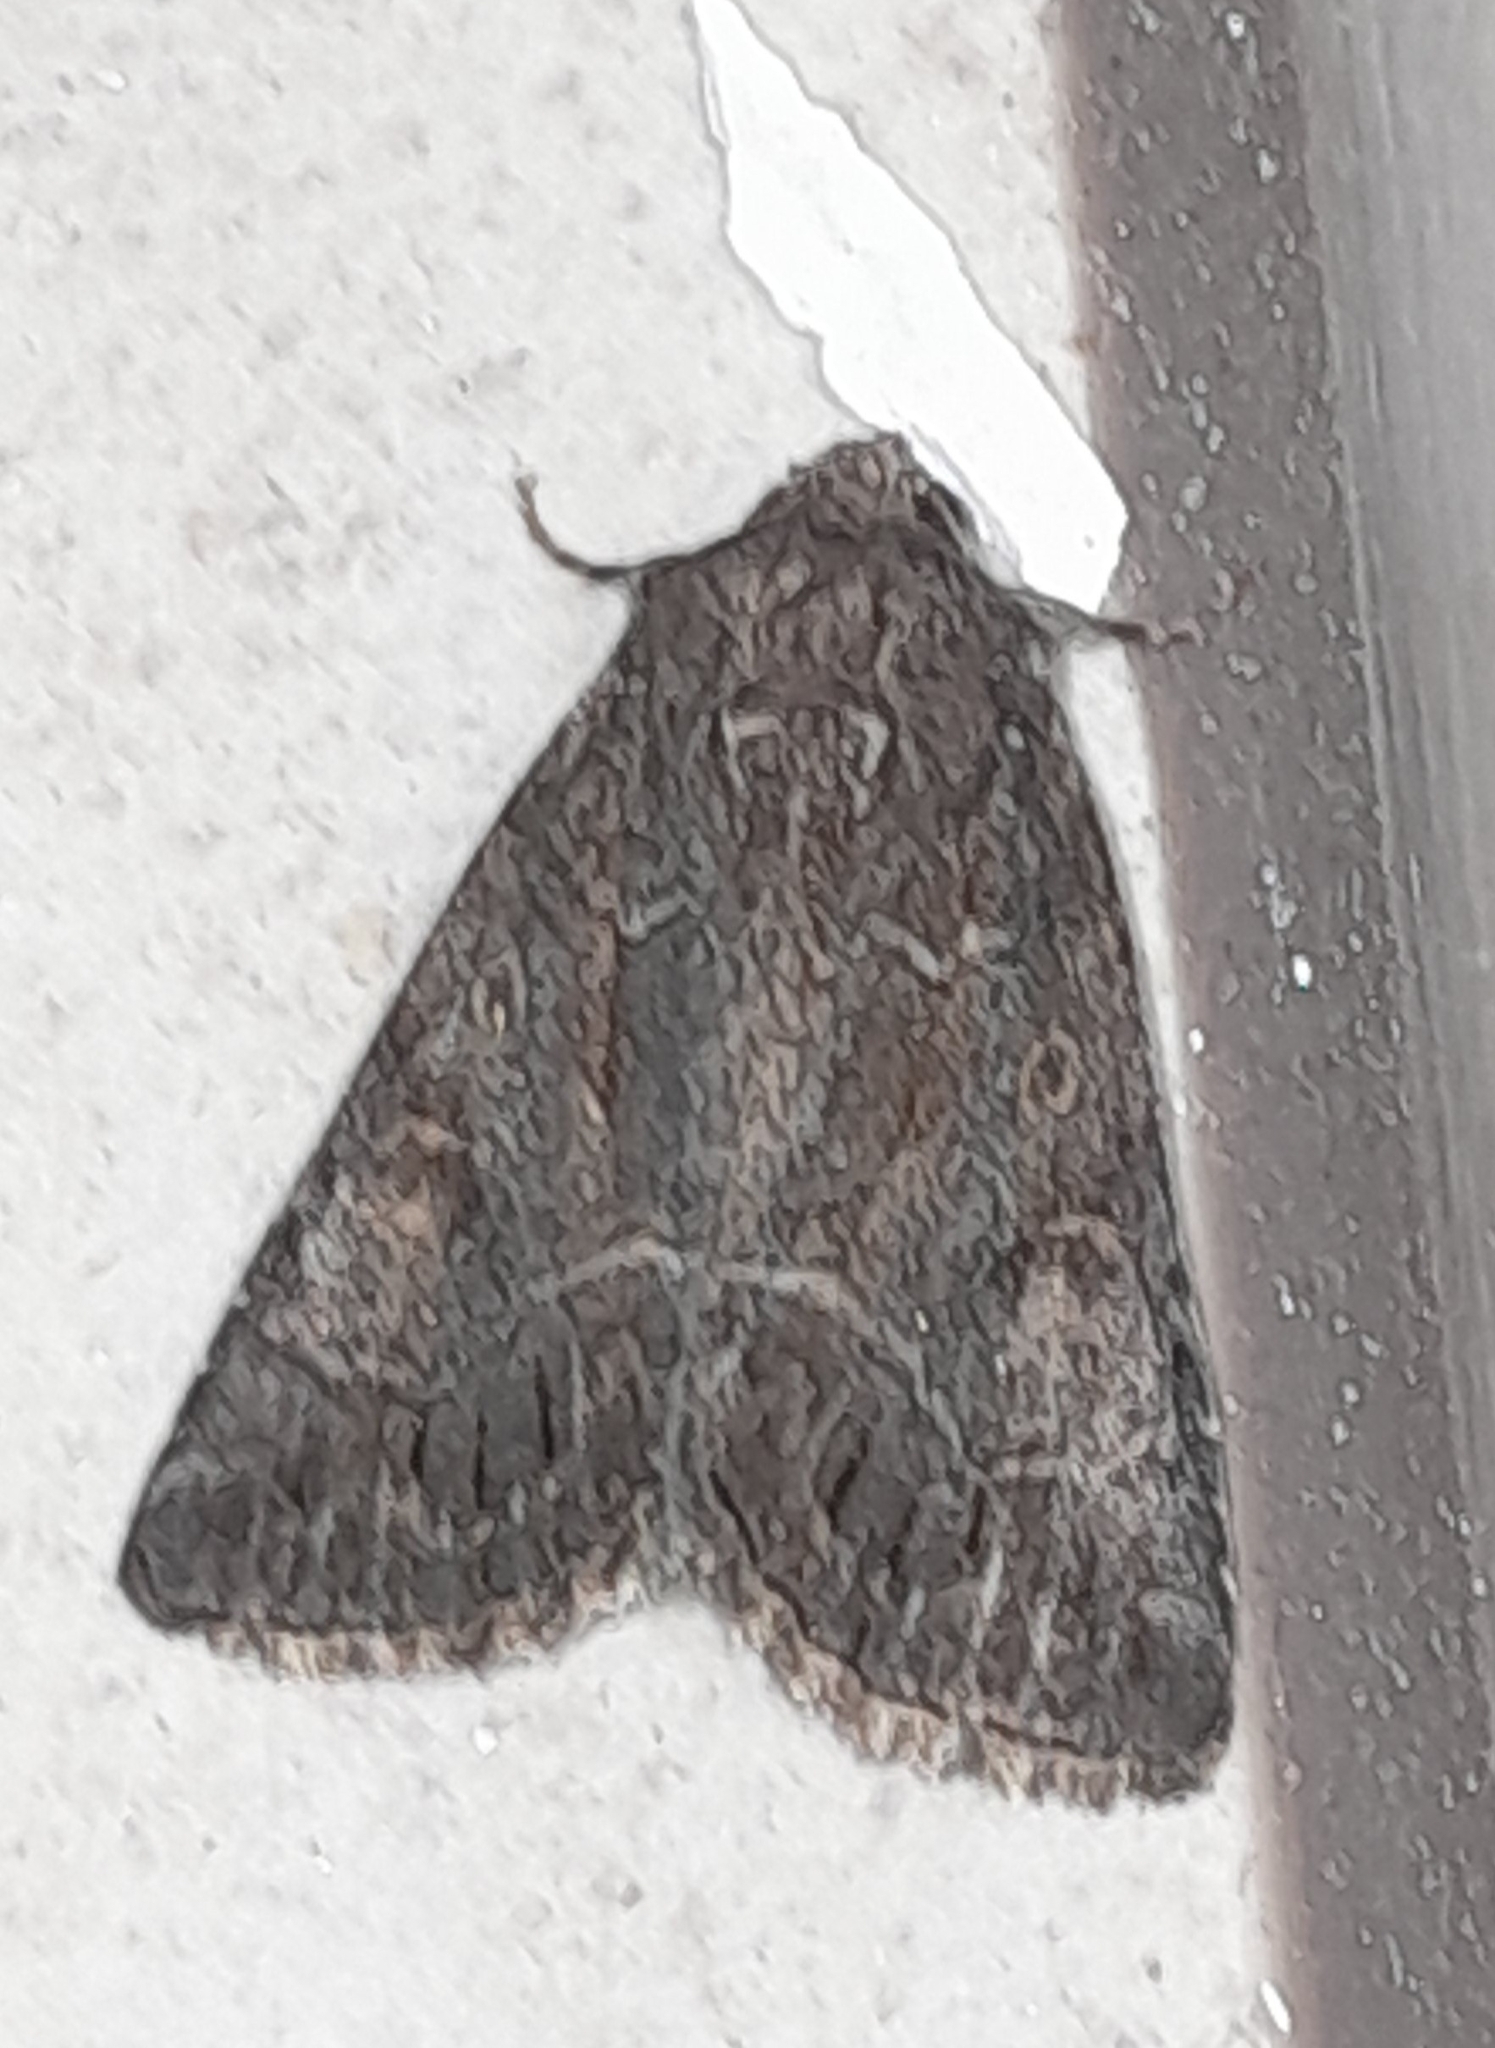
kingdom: Animalia
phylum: Arthropoda
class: Insecta
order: Lepidoptera
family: Noctuidae
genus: Thalpophila
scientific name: Thalpophila matura
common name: Straw underwing
